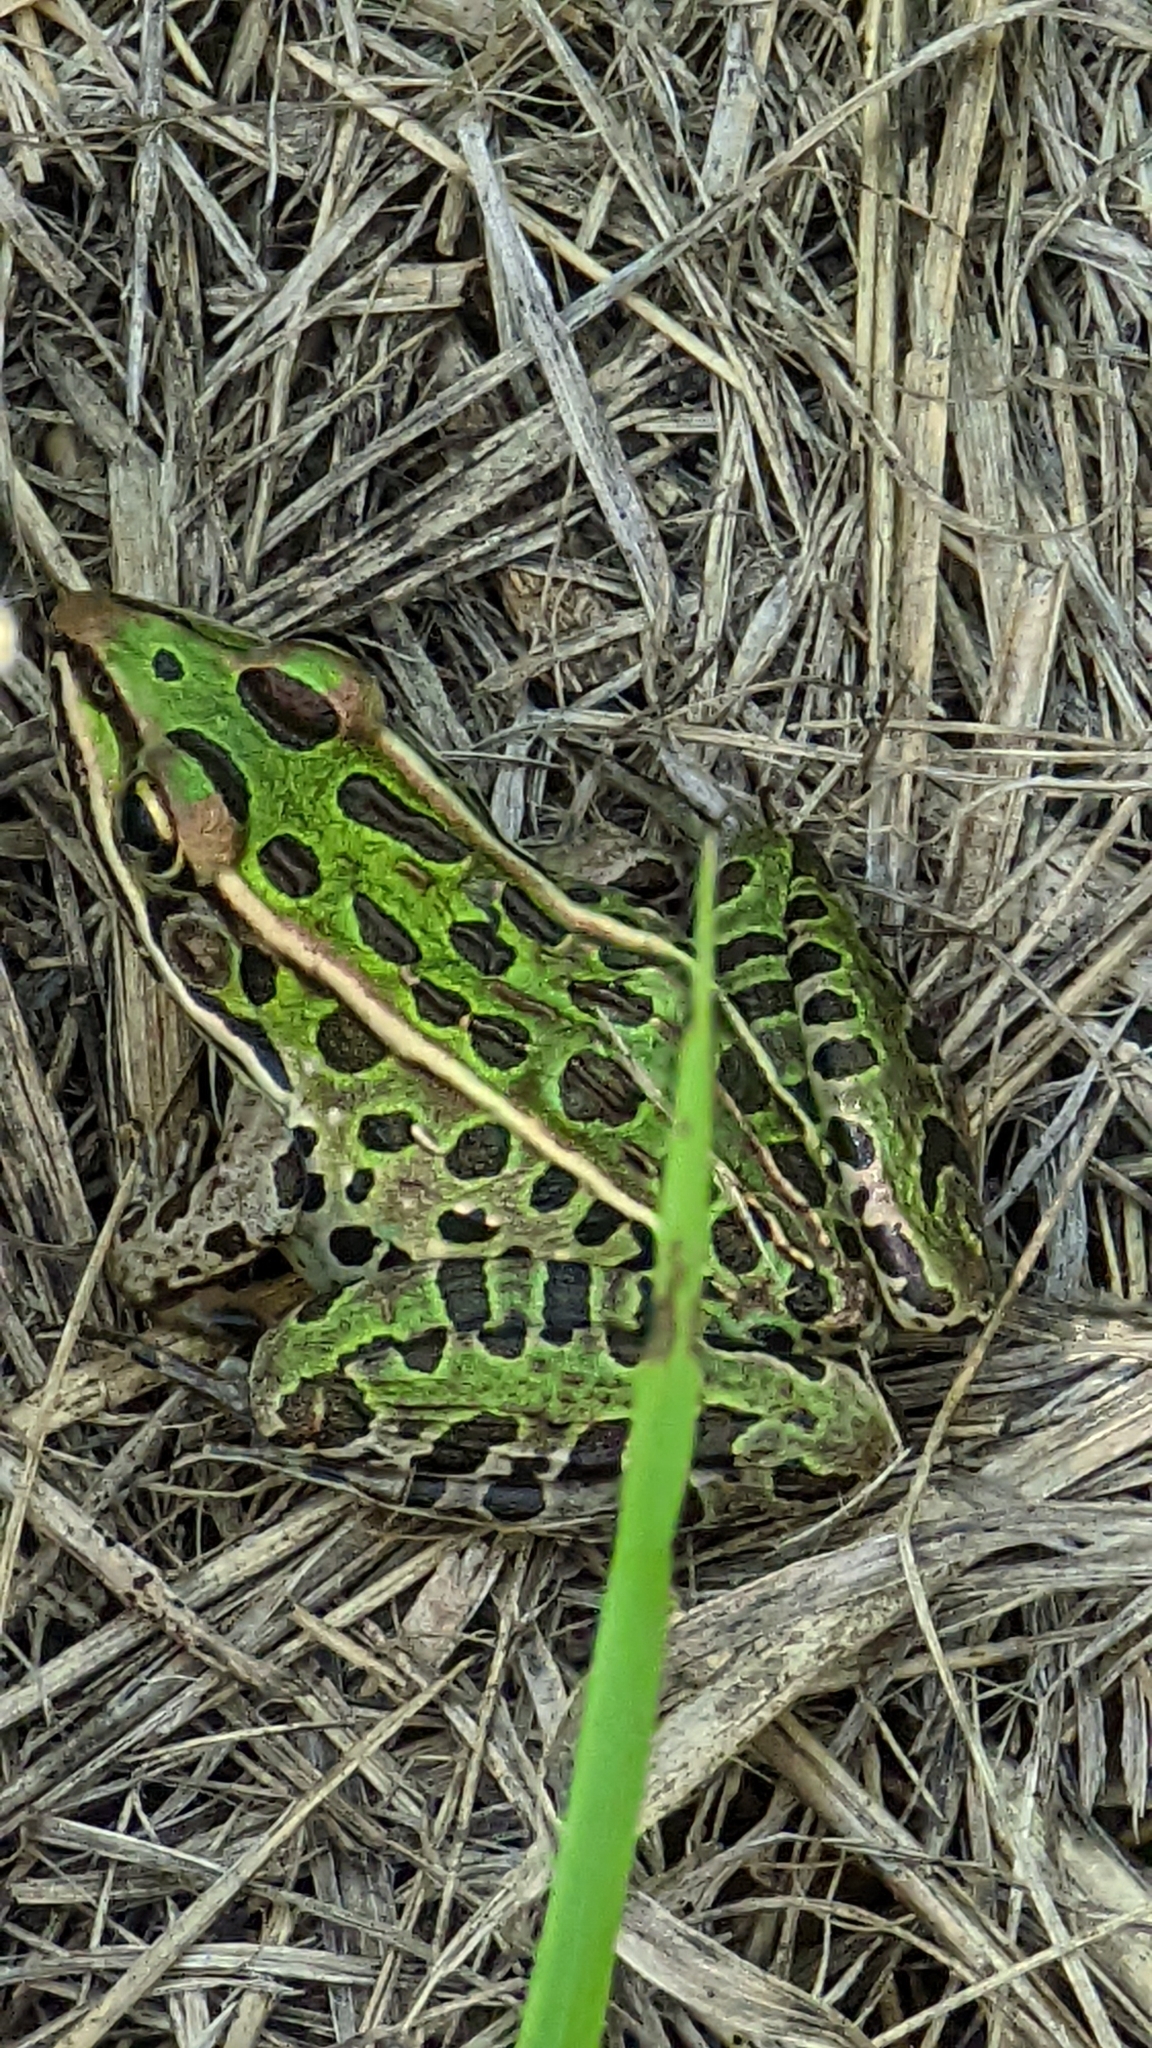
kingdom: Animalia
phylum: Chordata
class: Amphibia
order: Anura
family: Ranidae
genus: Lithobates
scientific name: Lithobates pipiens
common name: Northern leopard frog
